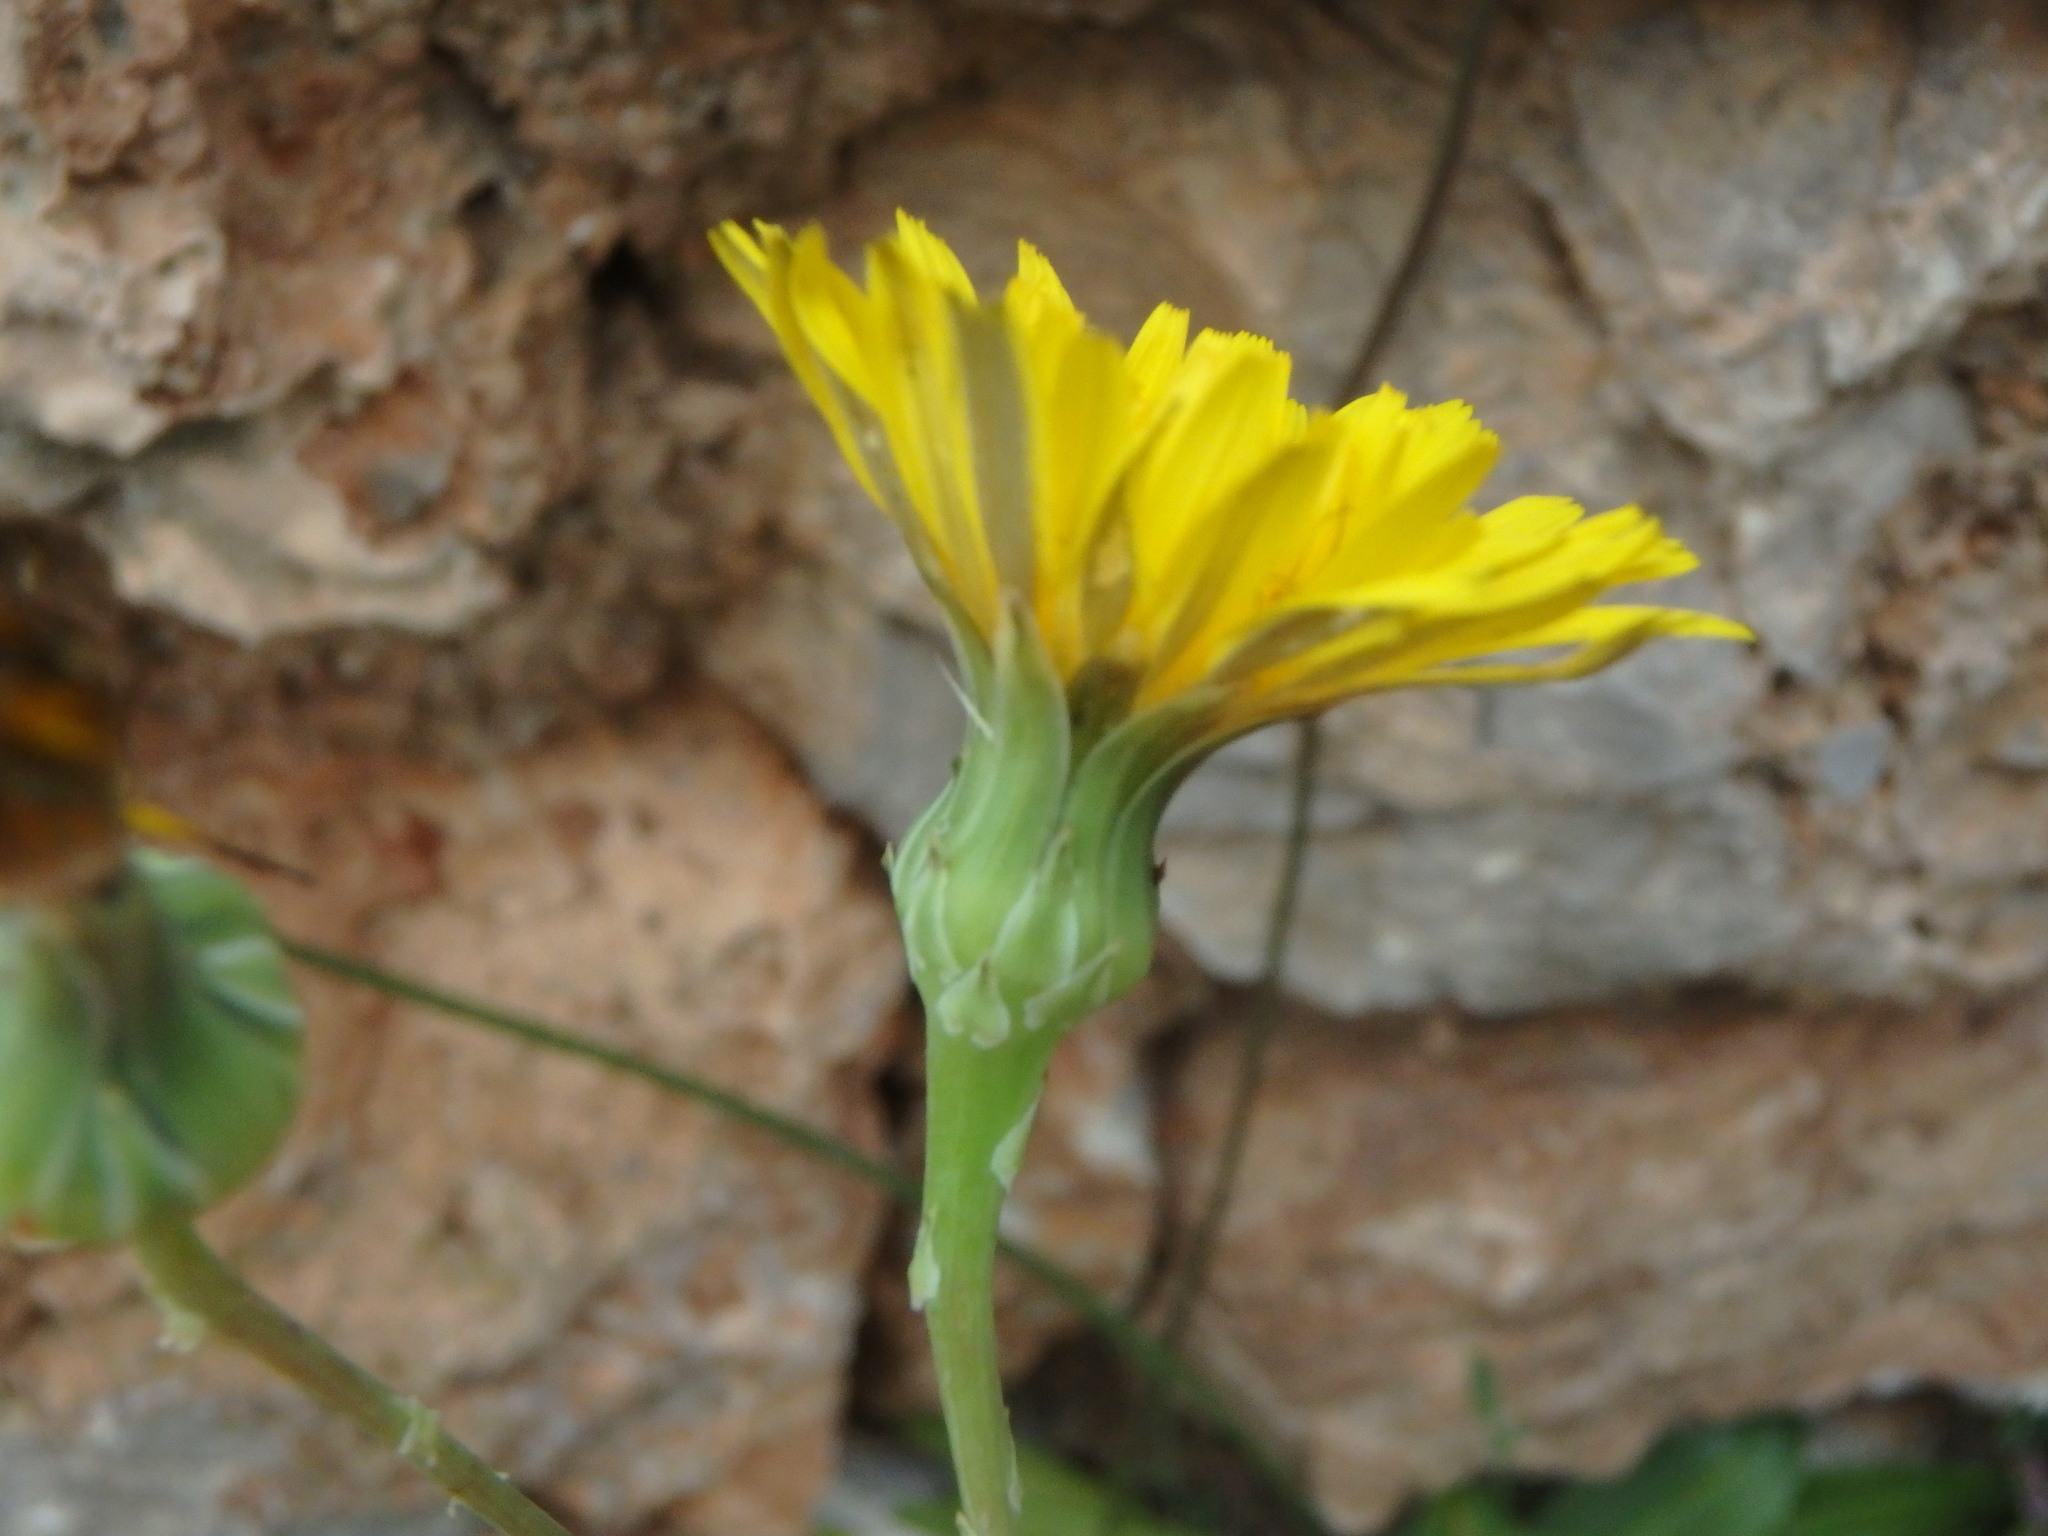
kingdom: Plantae
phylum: Tracheophyta
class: Magnoliopsida
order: Asterales
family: Asteraceae
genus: Reichardia
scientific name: Reichardia picroides
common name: Common brighteyes
